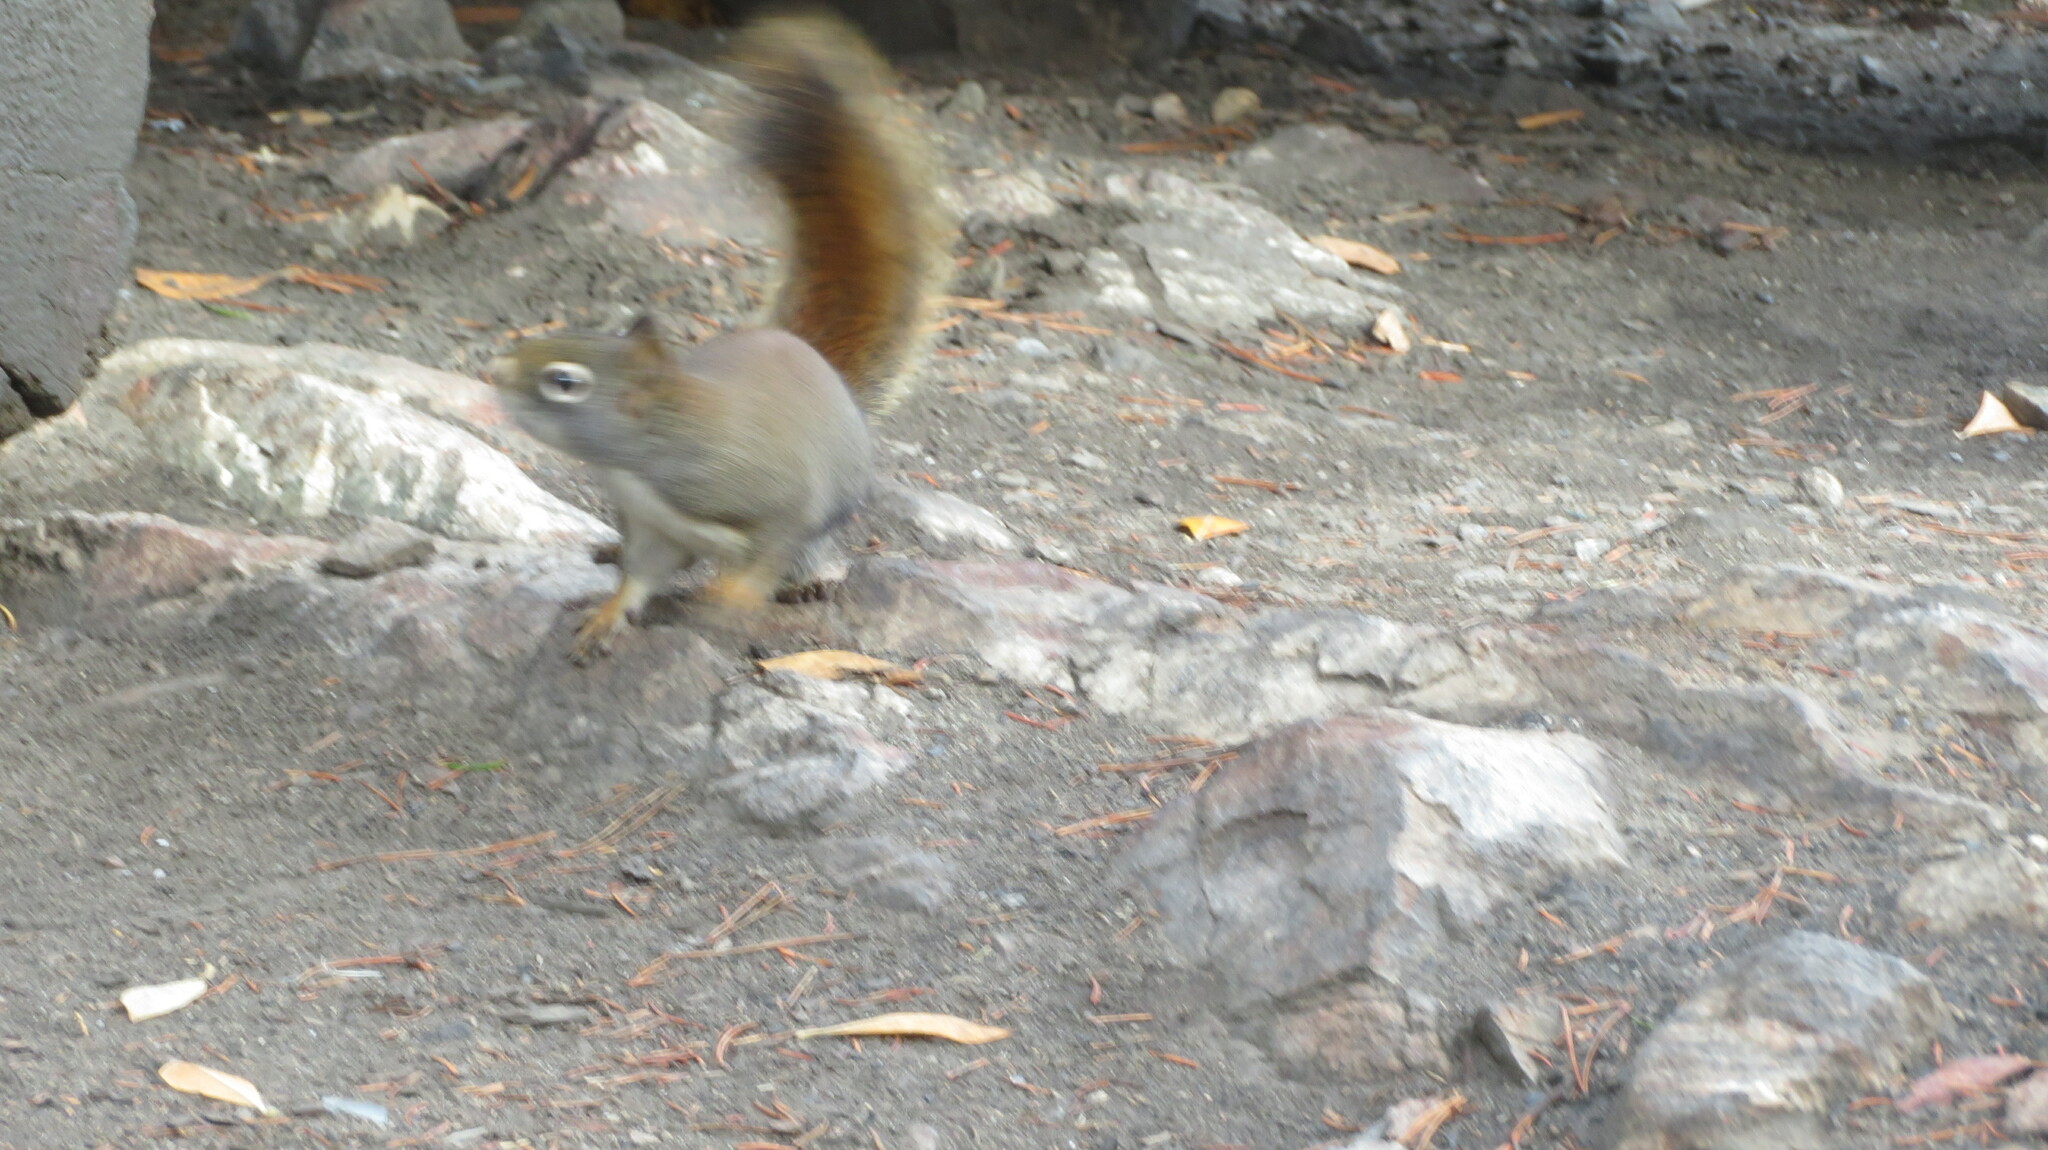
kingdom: Animalia
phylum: Chordata
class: Mammalia
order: Rodentia
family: Sciuridae
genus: Tamiasciurus
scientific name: Tamiasciurus hudsonicus
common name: Red squirrel
